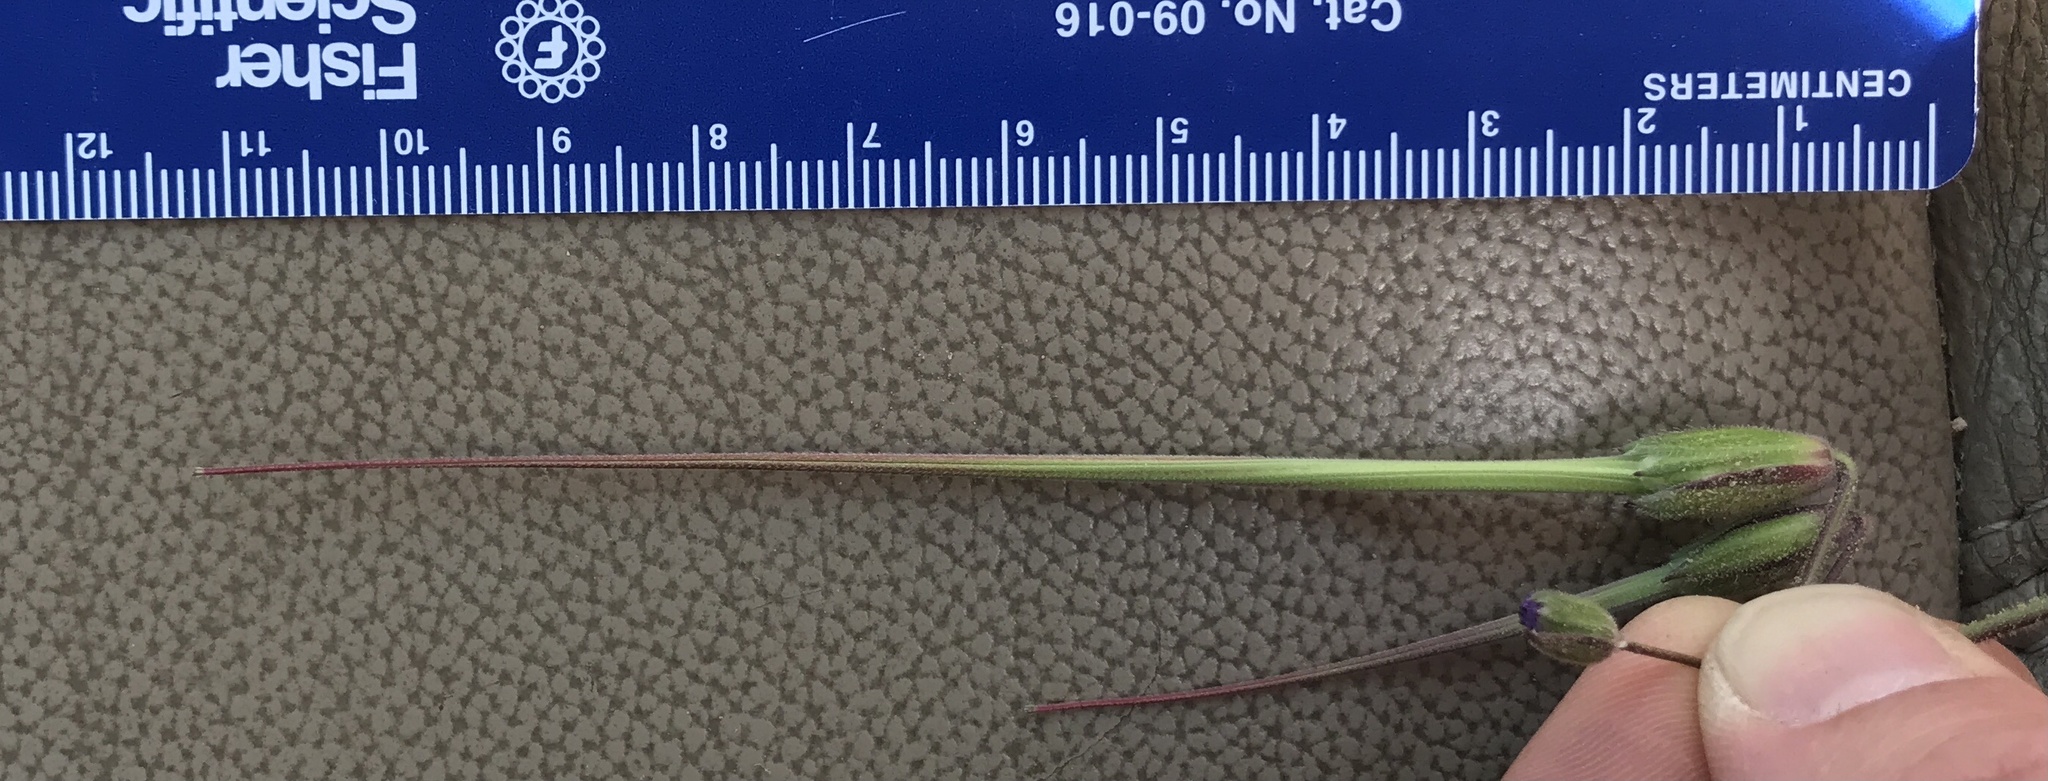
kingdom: Plantae
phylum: Tracheophyta
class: Magnoliopsida
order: Geraniales
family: Geraniaceae
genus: Erodium
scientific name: Erodium botrys
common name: Mediterranean stork's-bill
